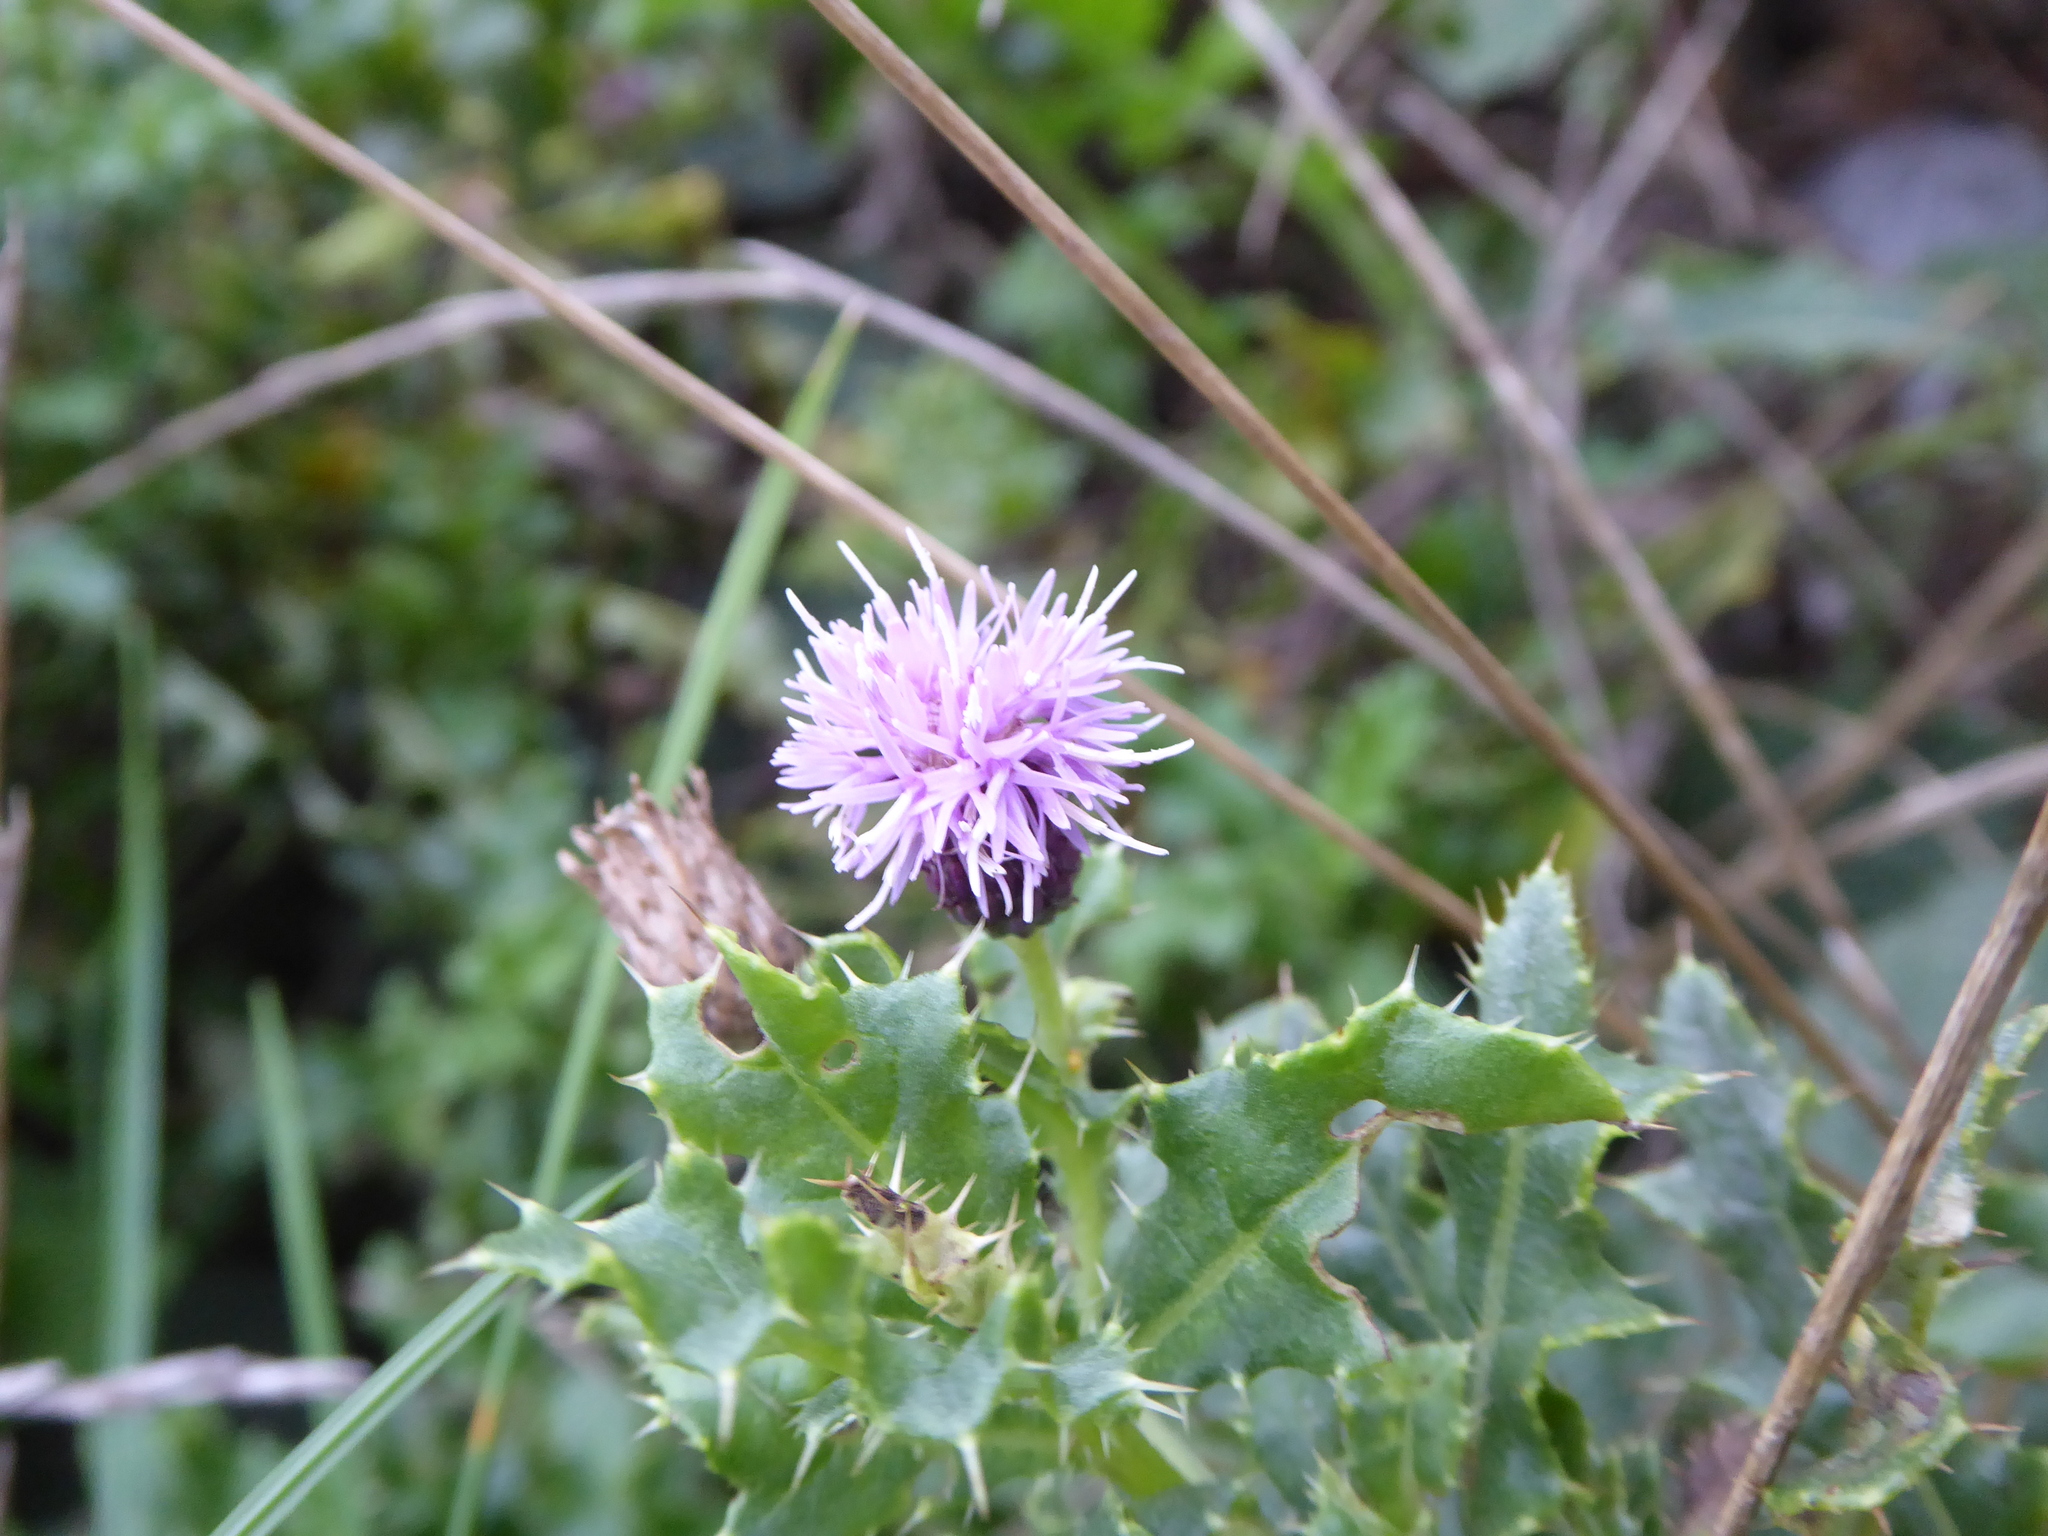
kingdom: Plantae
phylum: Tracheophyta
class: Magnoliopsida
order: Asterales
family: Asteraceae
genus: Cirsium
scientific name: Cirsium arvense
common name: Creeping thistle
